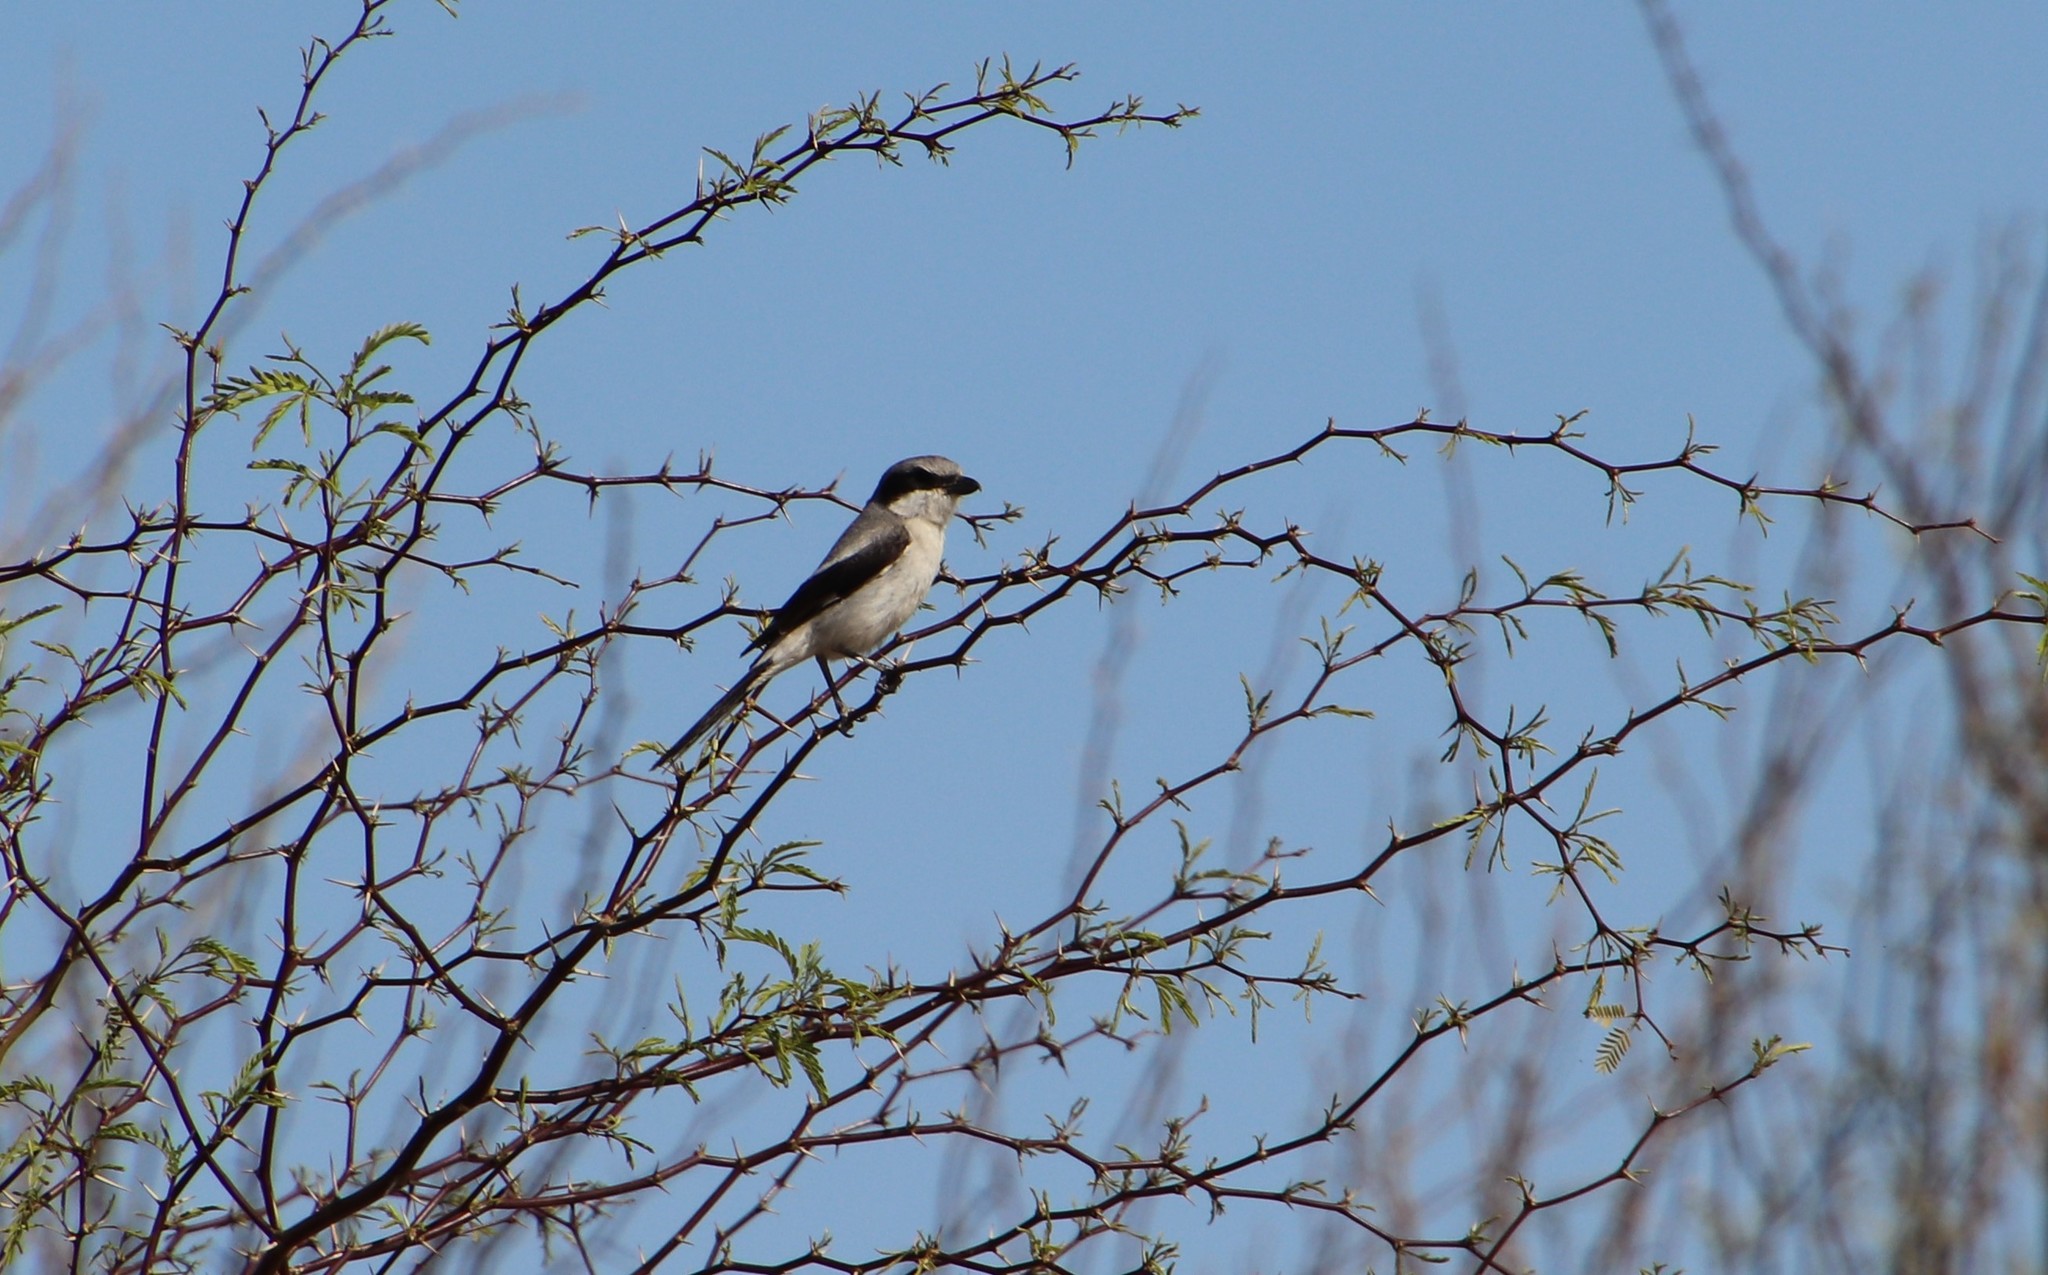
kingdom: Animalia
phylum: Chordata
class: Aves
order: Passeriformes
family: Laniidae
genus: Lanius
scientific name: Lanius ludovicianus
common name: Loggerhead shrike
